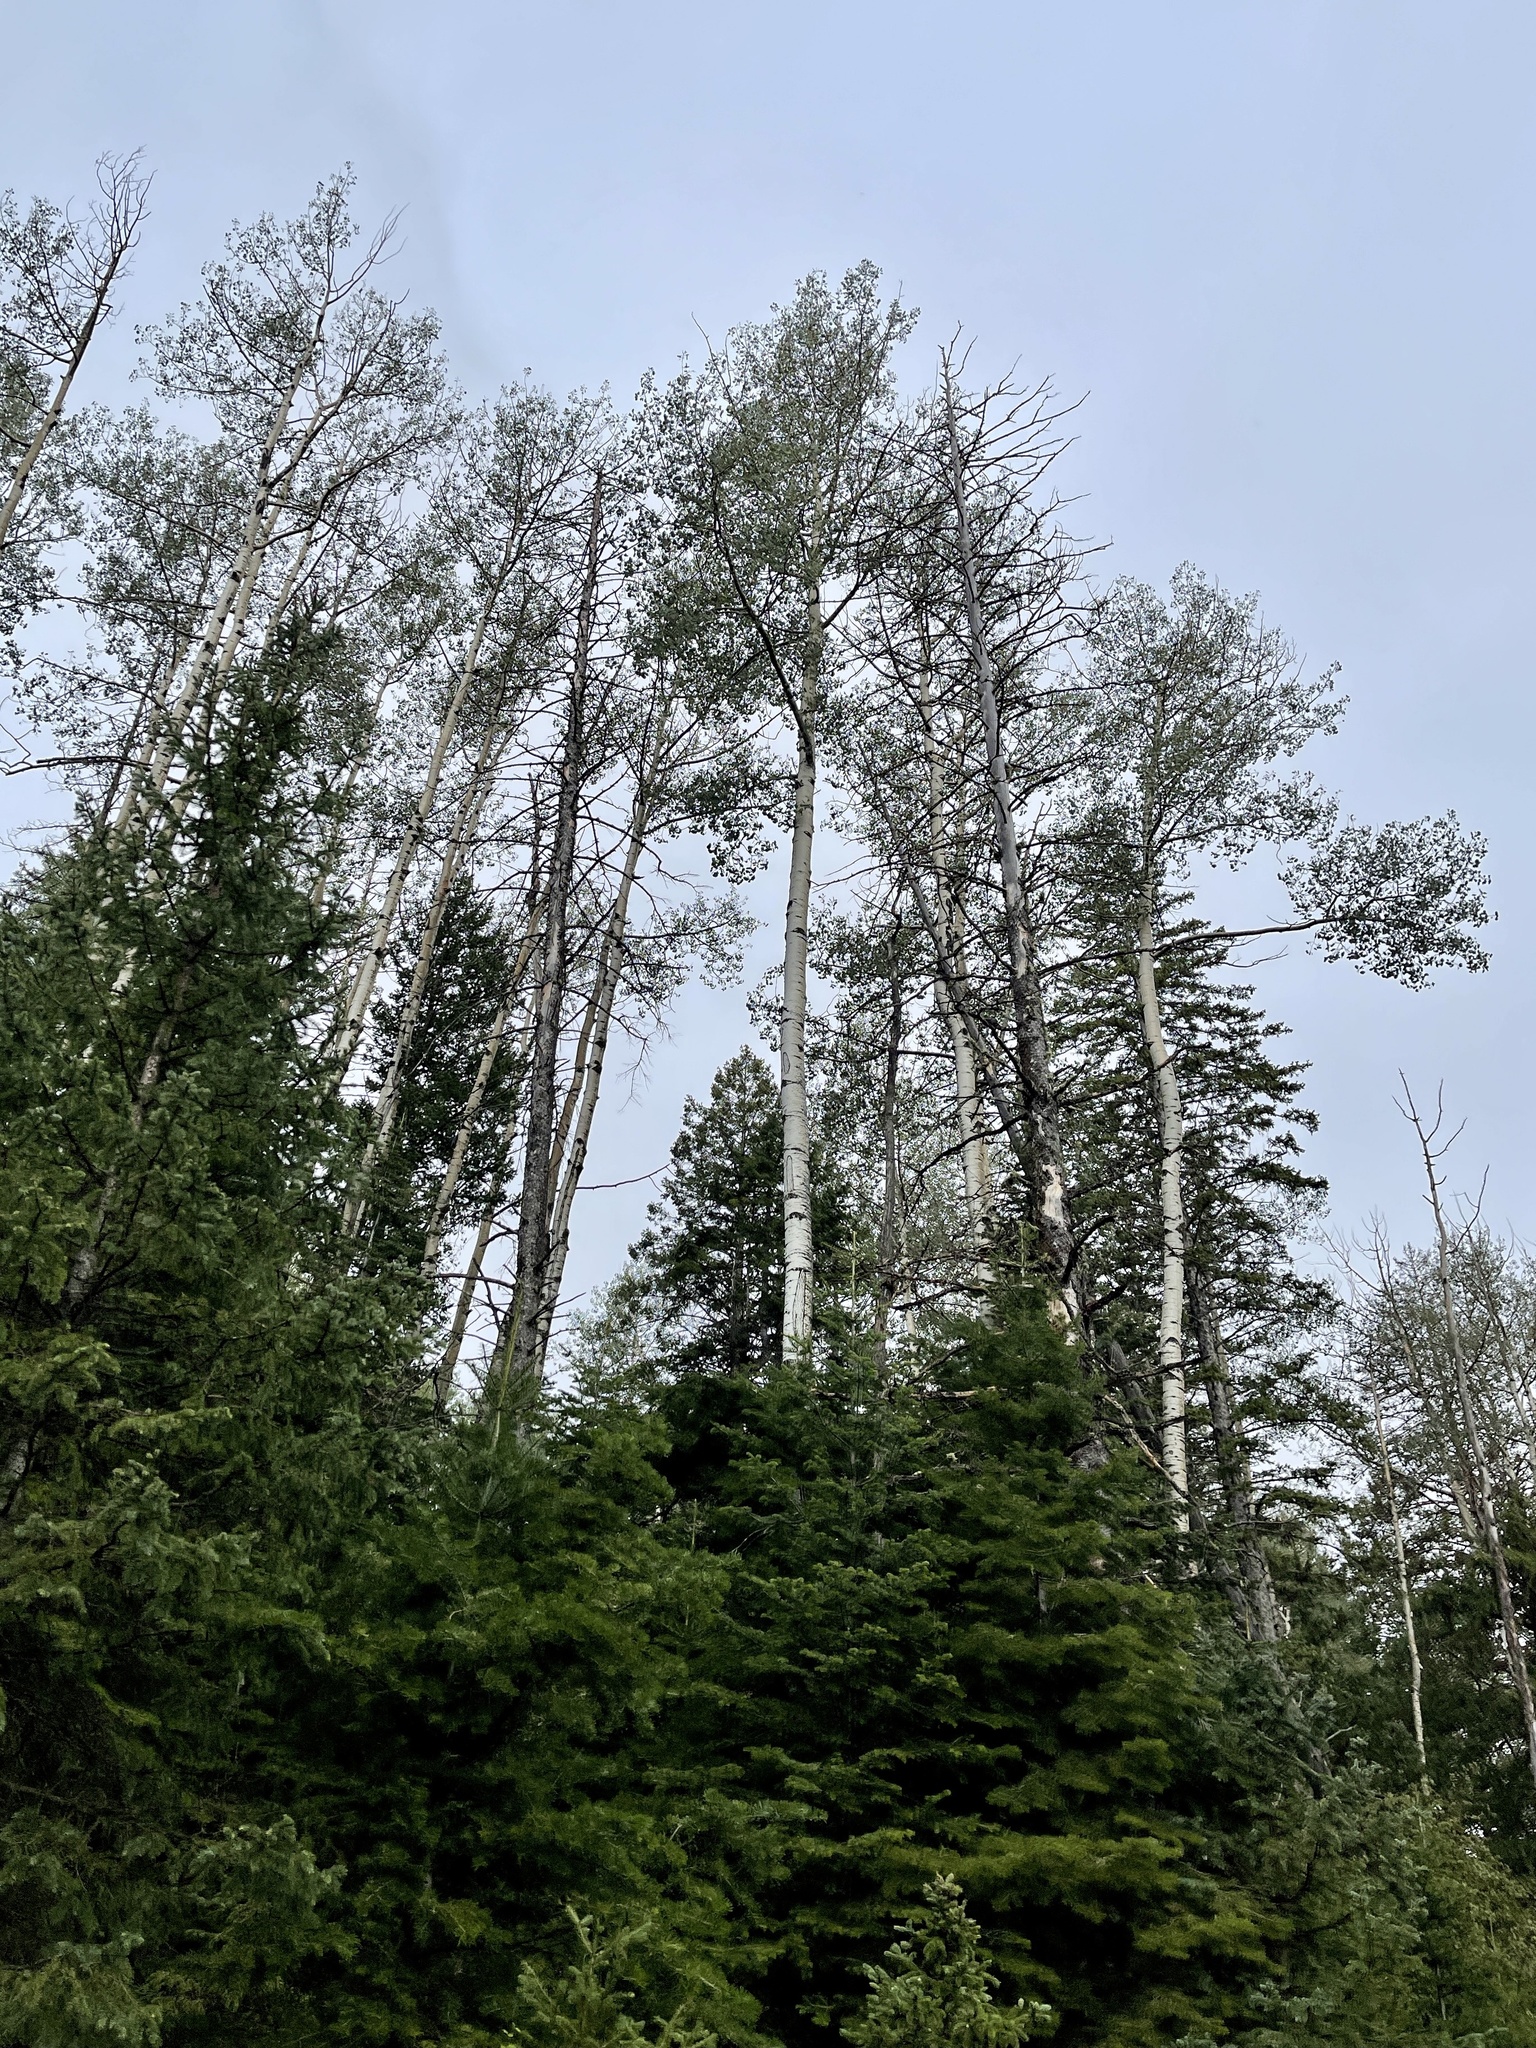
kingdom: Plantae
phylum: Tracheophyta
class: Magnoliopsida
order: Malpighiales
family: Salicaceae
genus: Populus
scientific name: Populus tremuloides
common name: Quaking aspen
